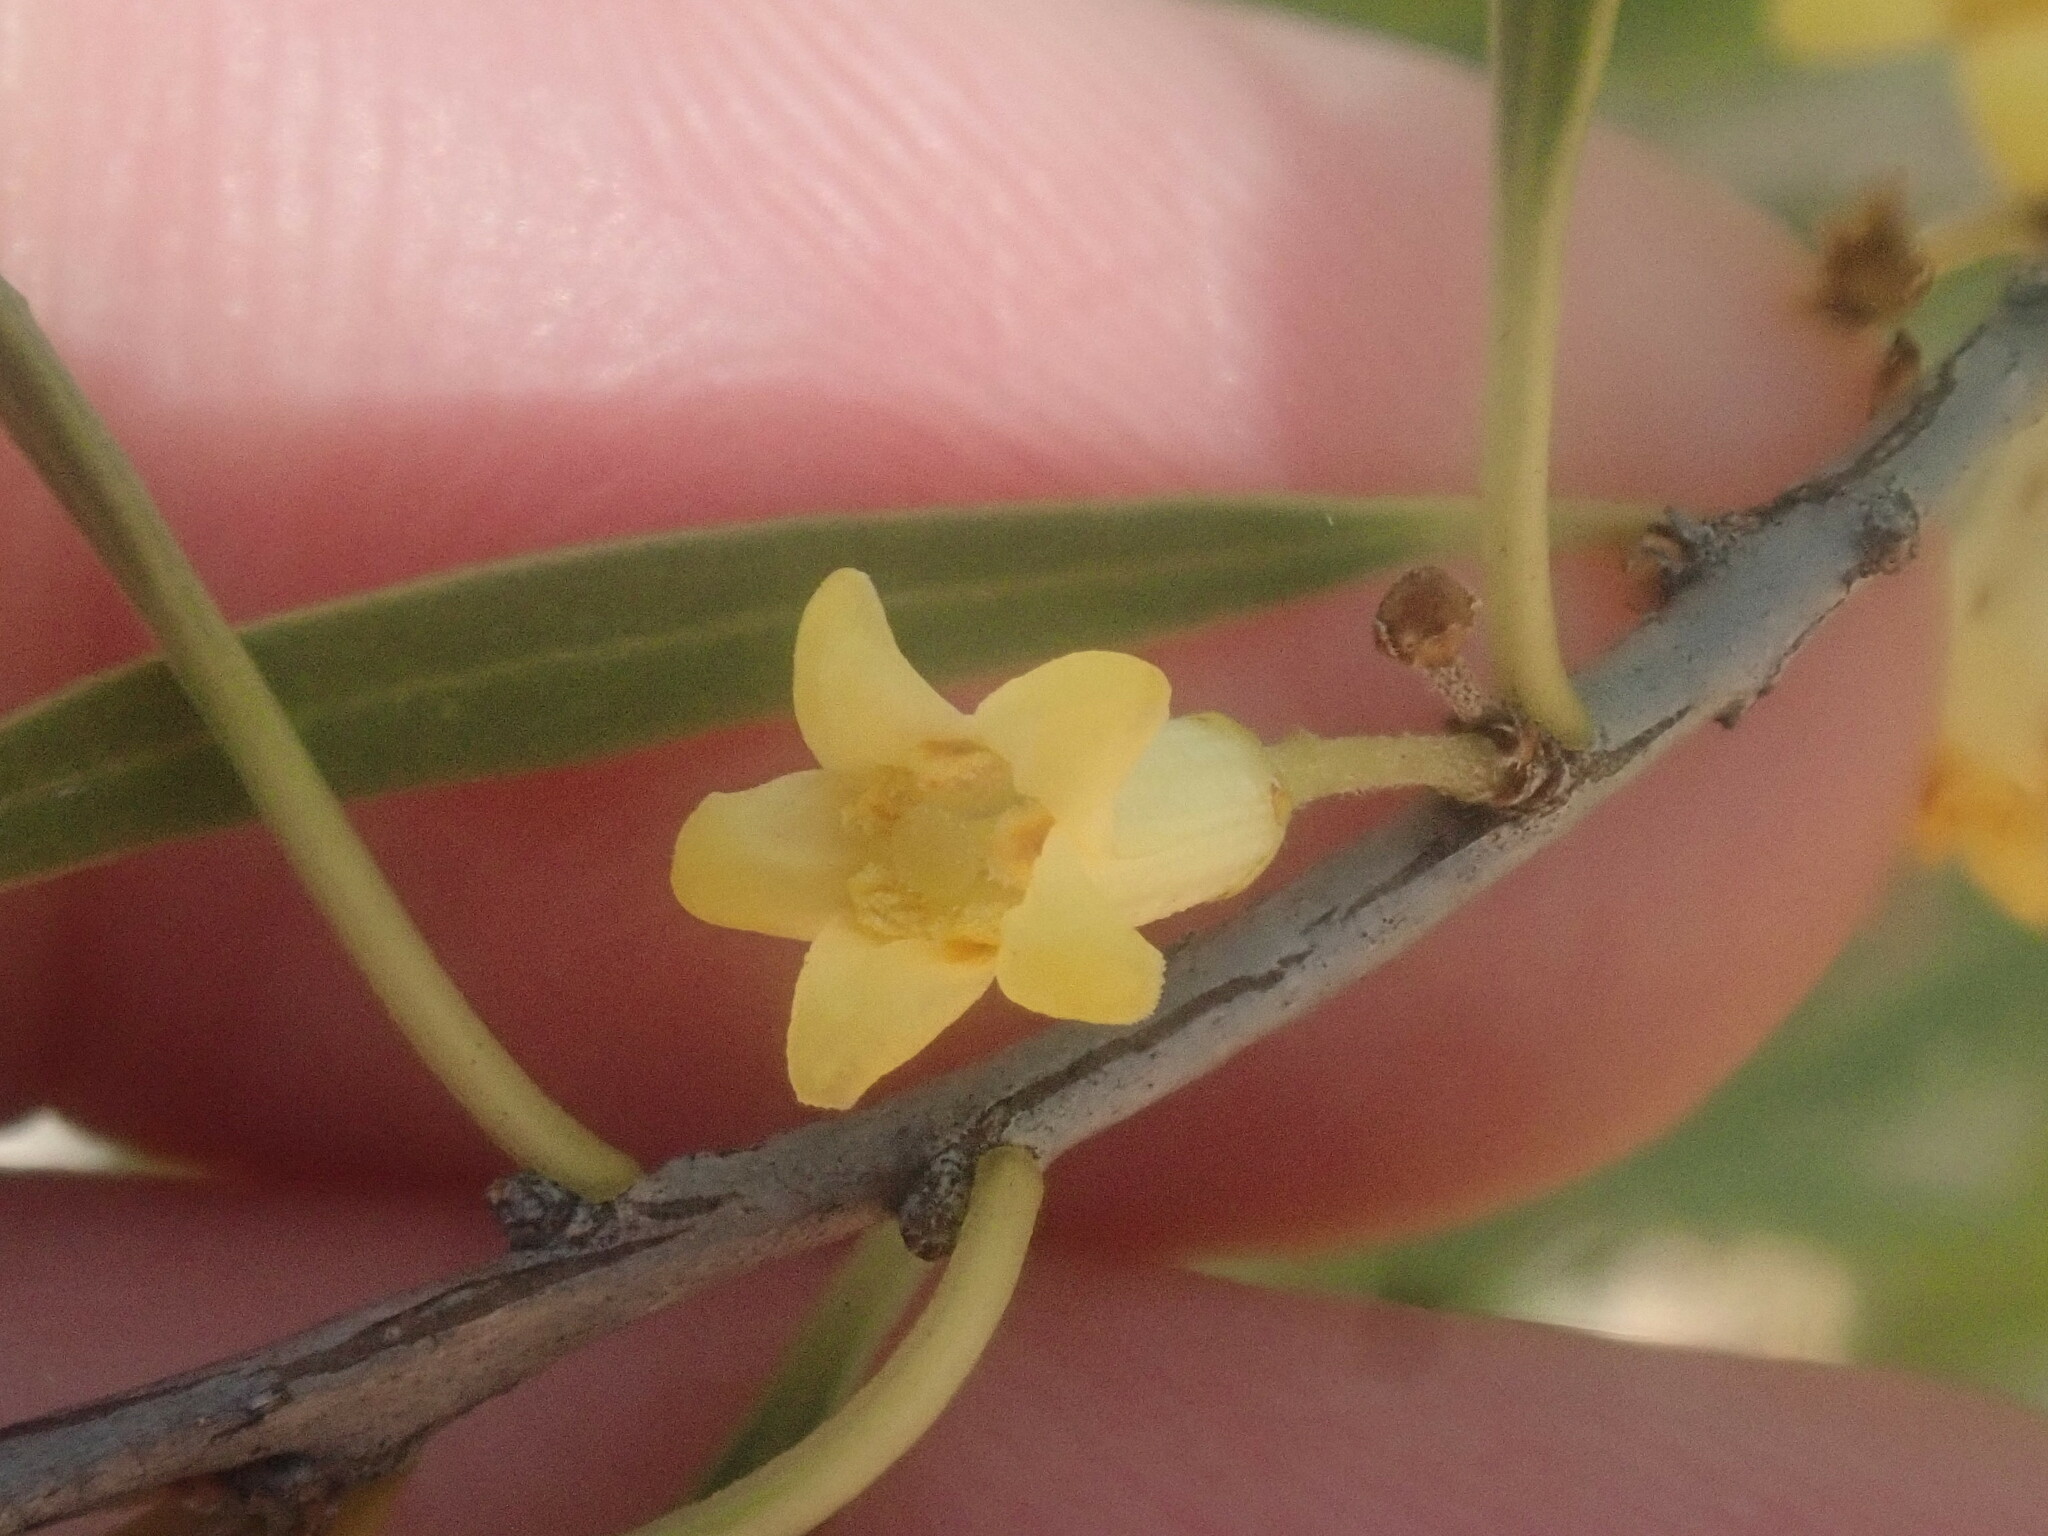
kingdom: Plantae
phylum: Tracheophyta
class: Magnoliopsida
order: Apiales
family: Pittosporaceae
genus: Pittosporum
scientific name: Pittosporum angustifolium
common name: Weeping pittosporum
